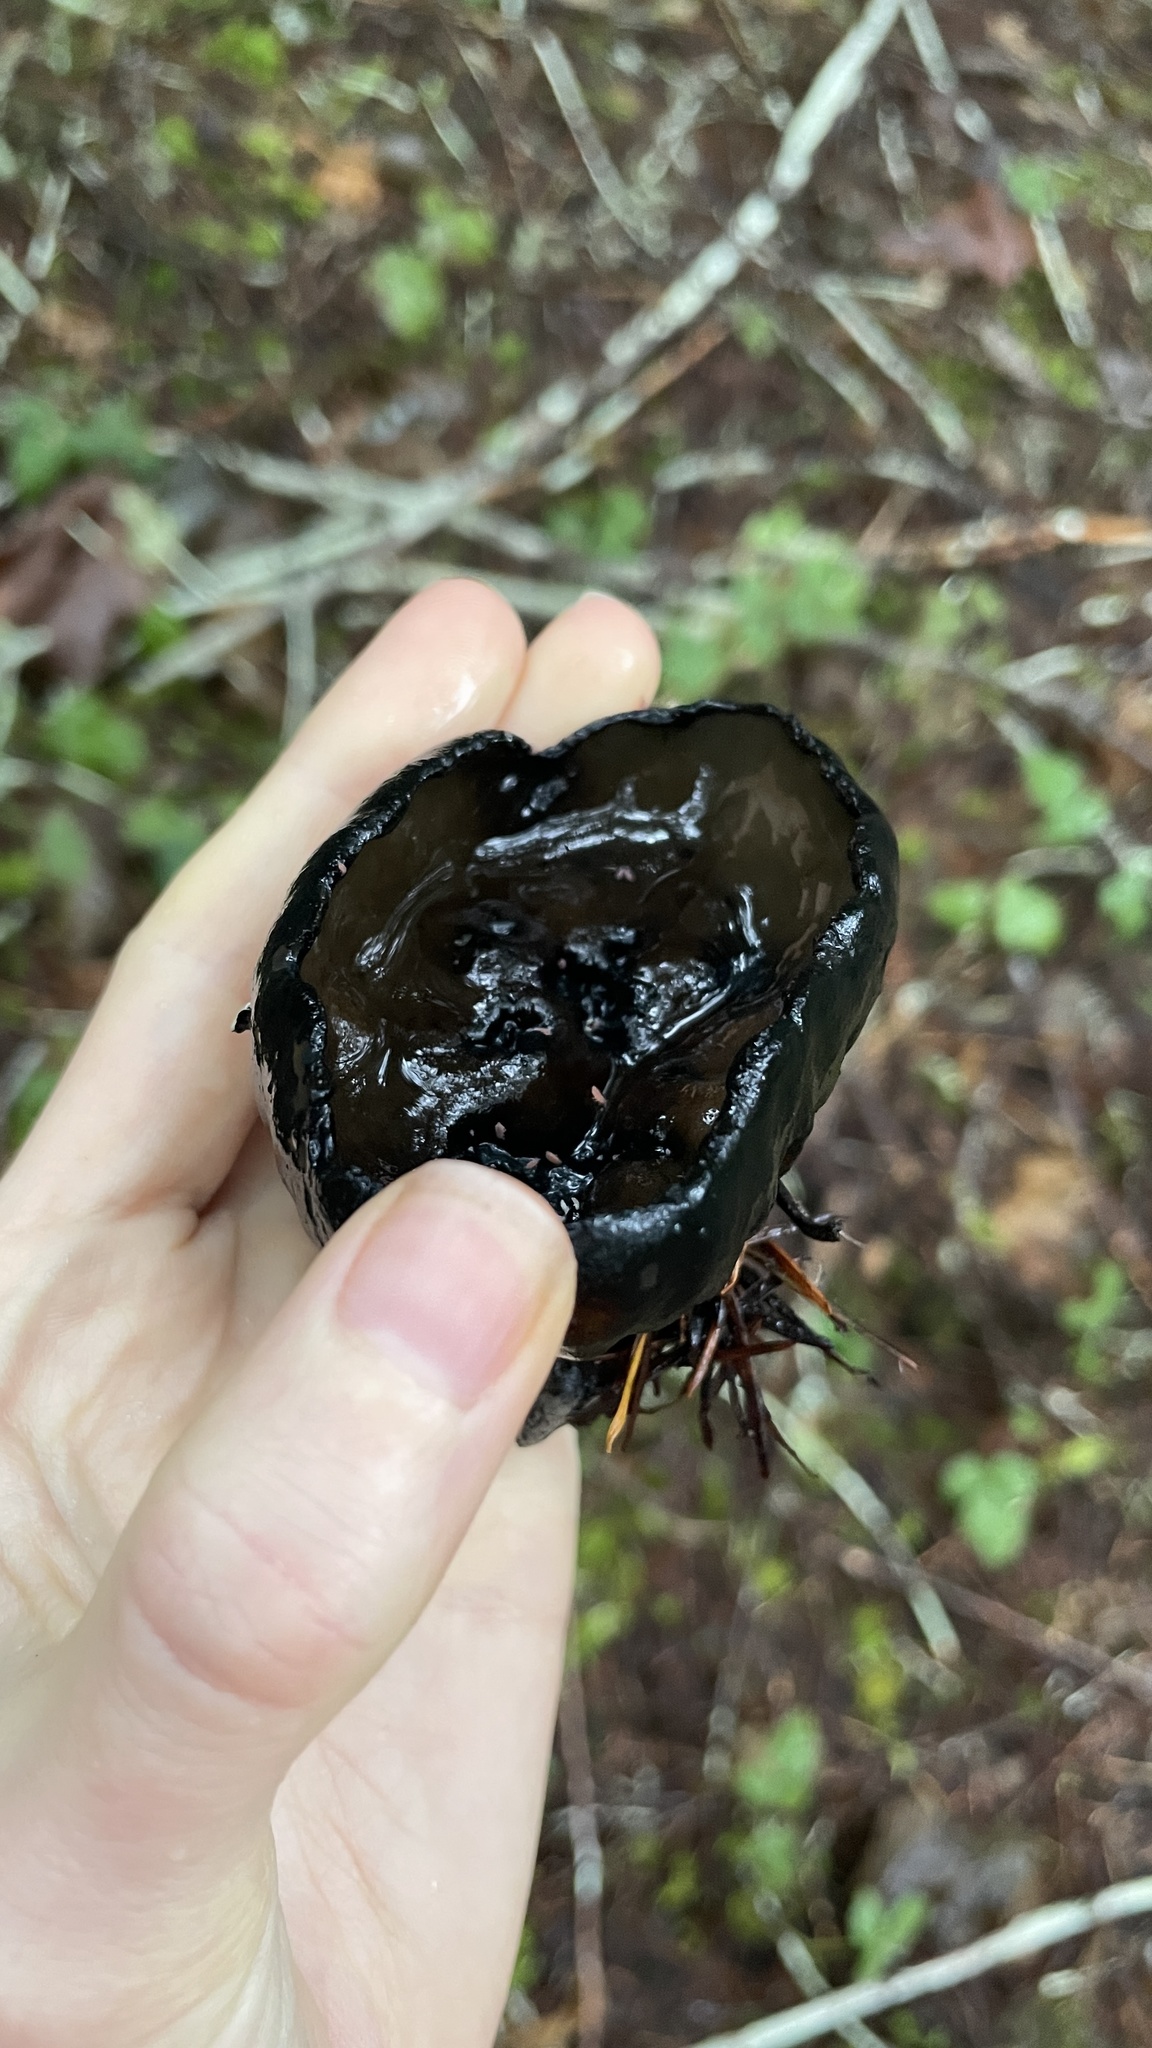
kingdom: Fungi
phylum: Ascomycota
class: Pezizomycetes
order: Pezizales
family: Sarcosomataceae
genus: Urnula
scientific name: Urnula padeniana
